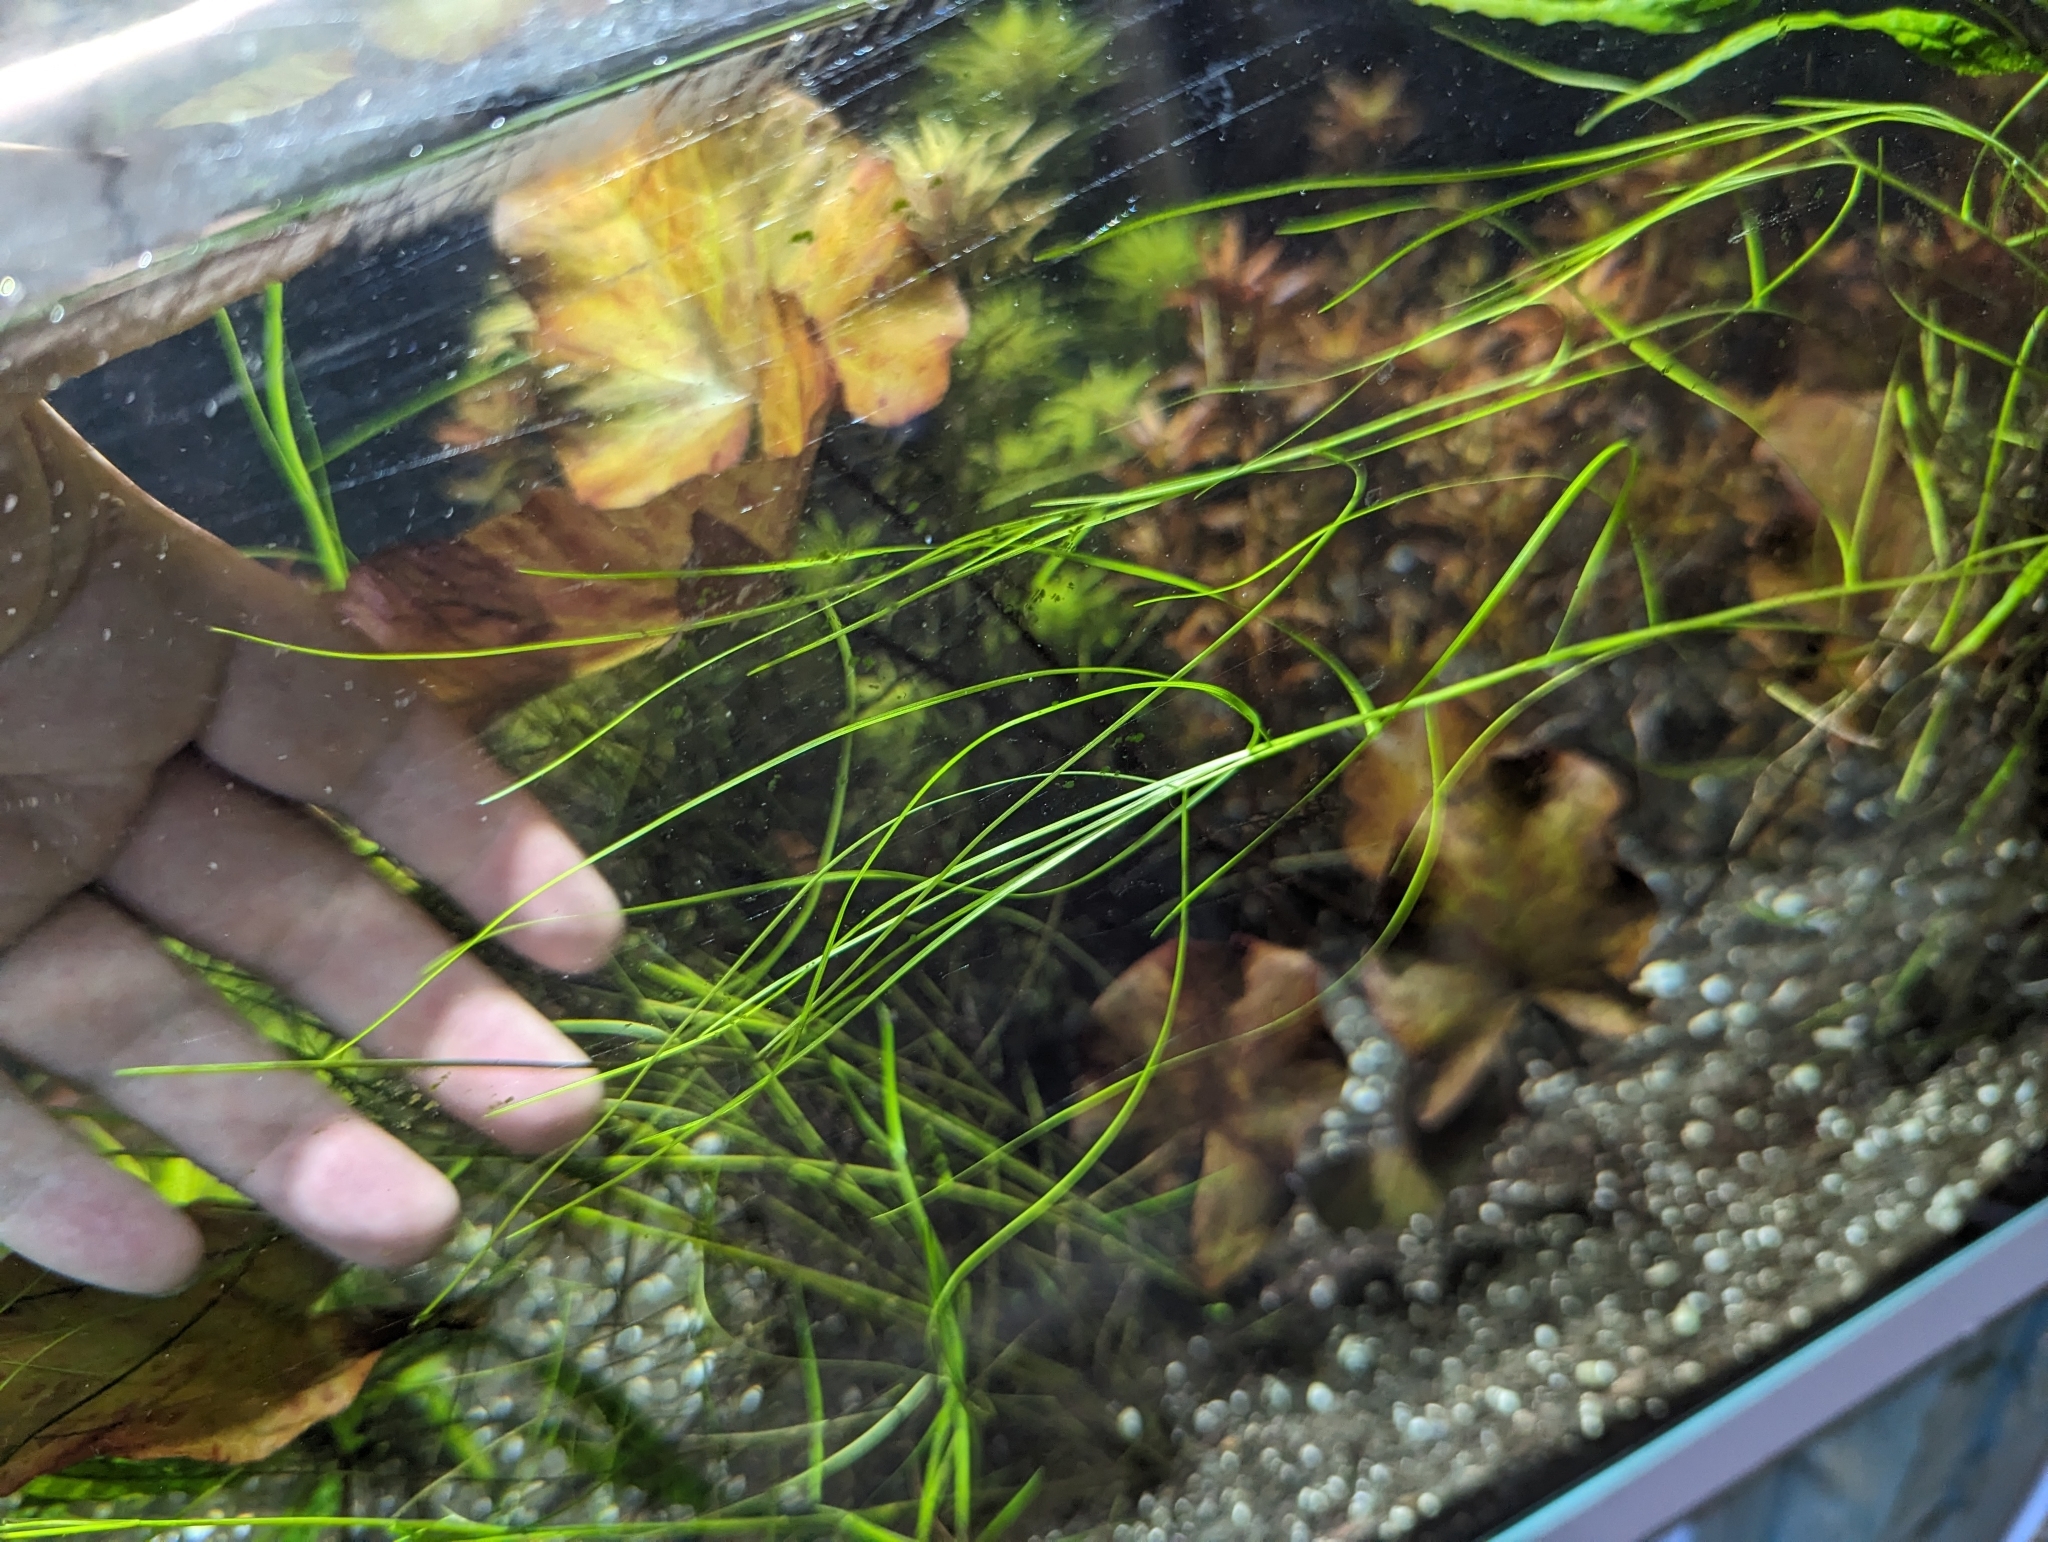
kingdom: Plantae
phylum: Tracheophyta
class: Liliopsida
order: Alismatales
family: Potamogetonaceae
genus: Stuckenia
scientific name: Stuckenia pectinata
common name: Sago pondweed
